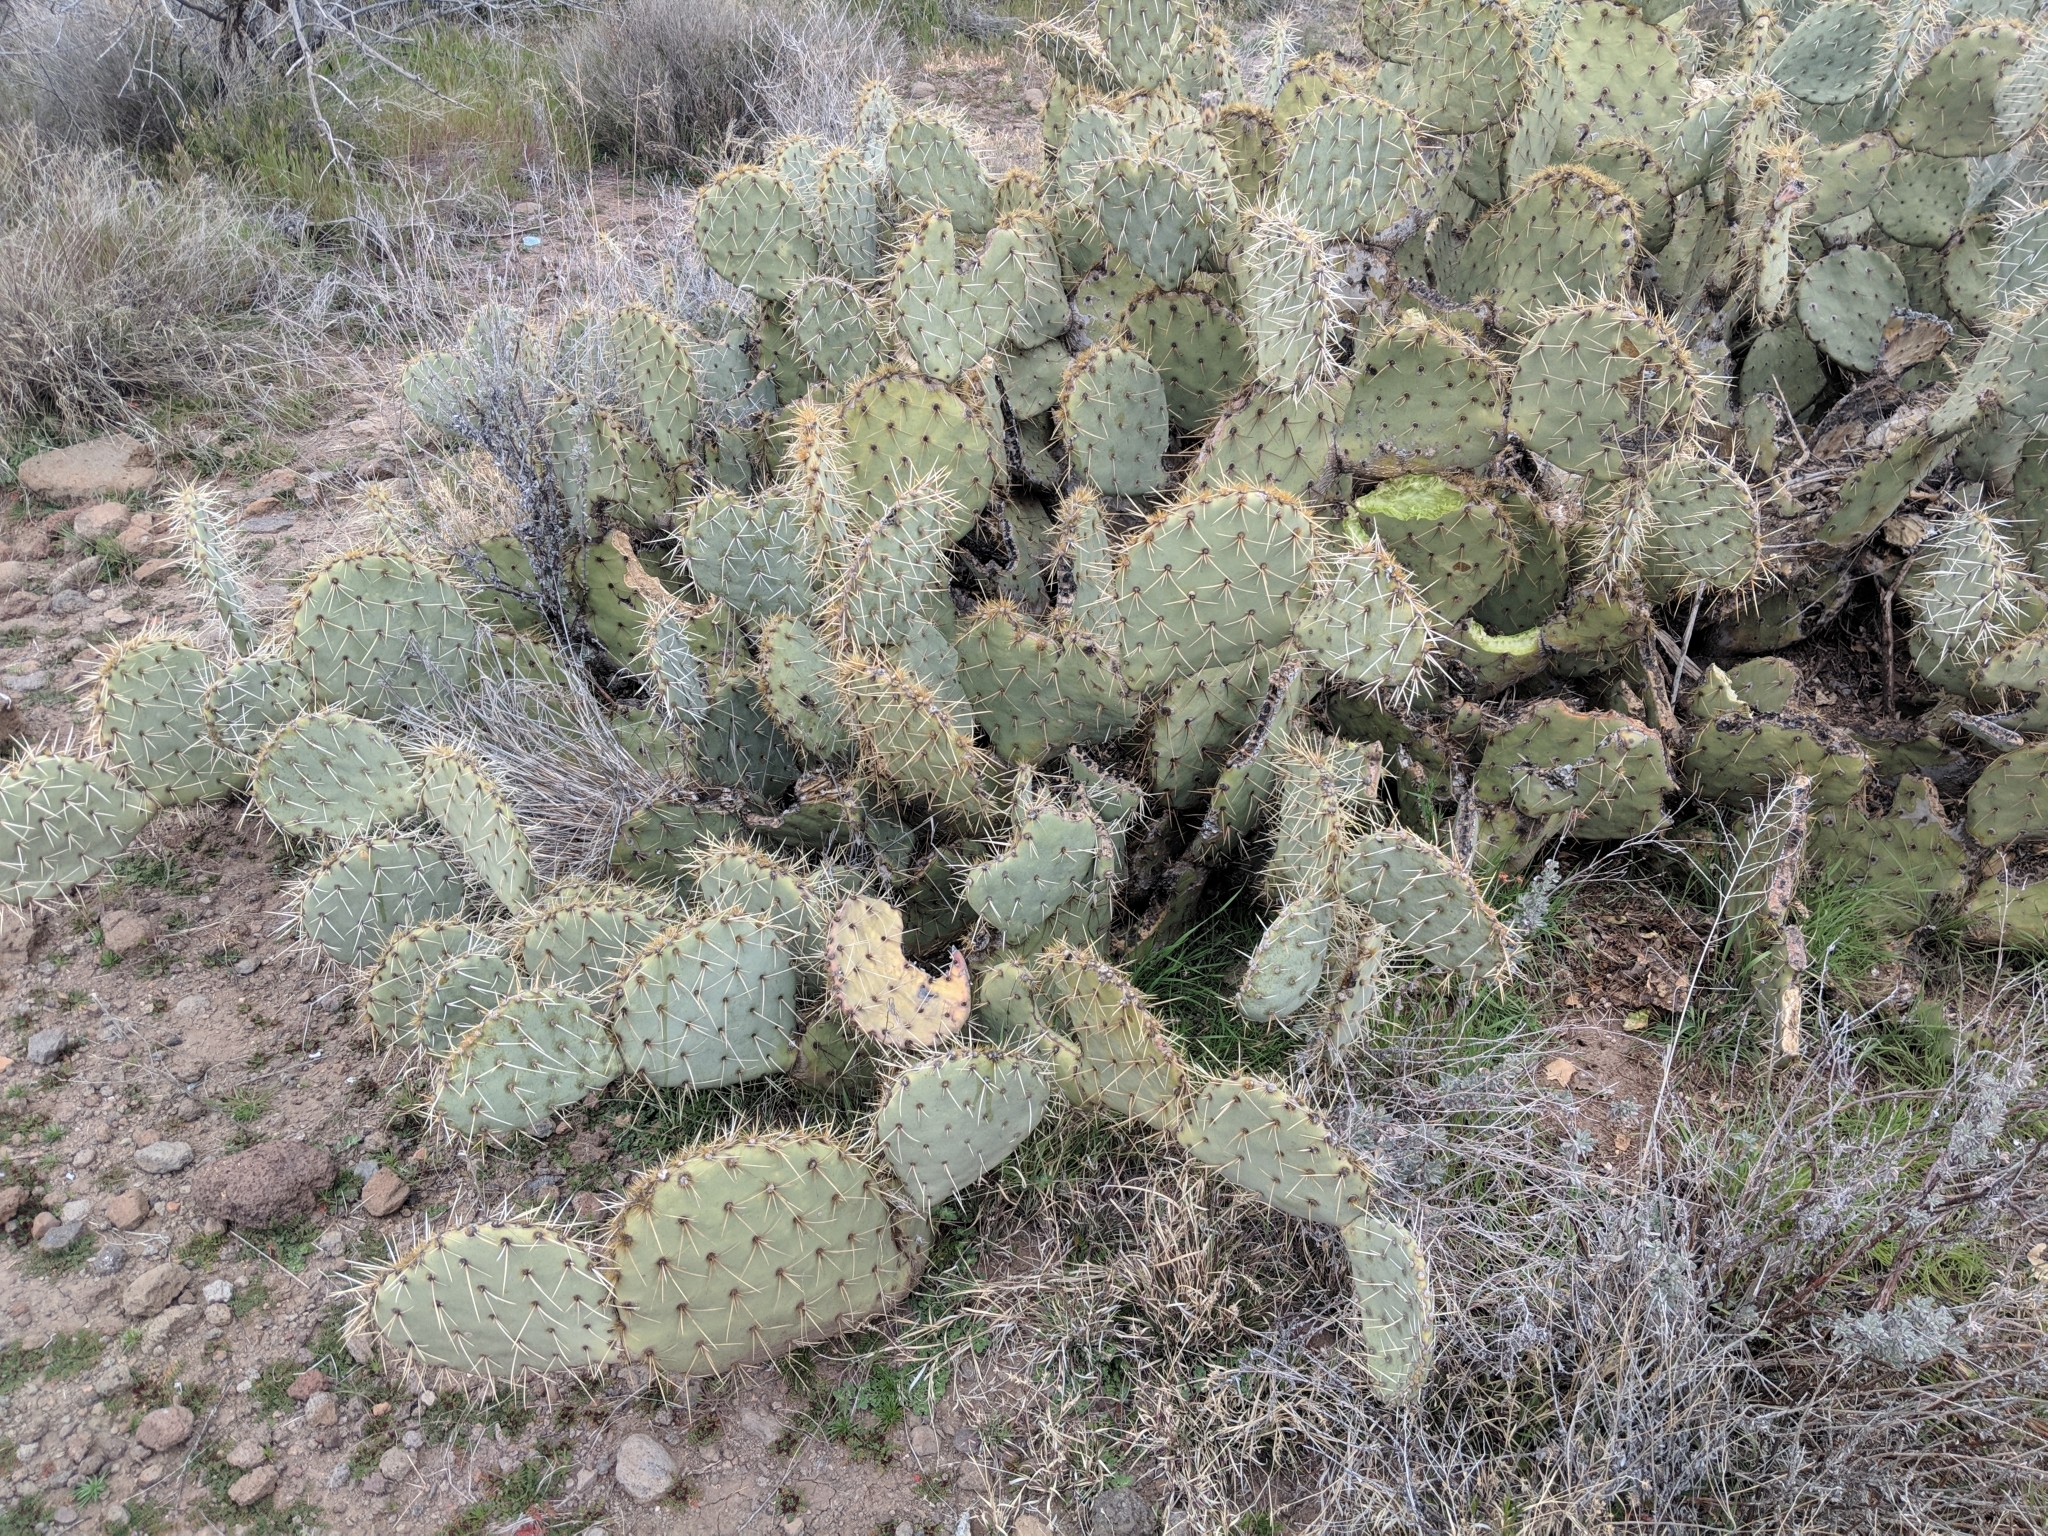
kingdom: Plantae
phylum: Tracheophyta
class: Magnoliopsida
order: Caryophyllales
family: Cactaceae
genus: Opuntia
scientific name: Opuntia engelmannii
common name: Cactus-apple
